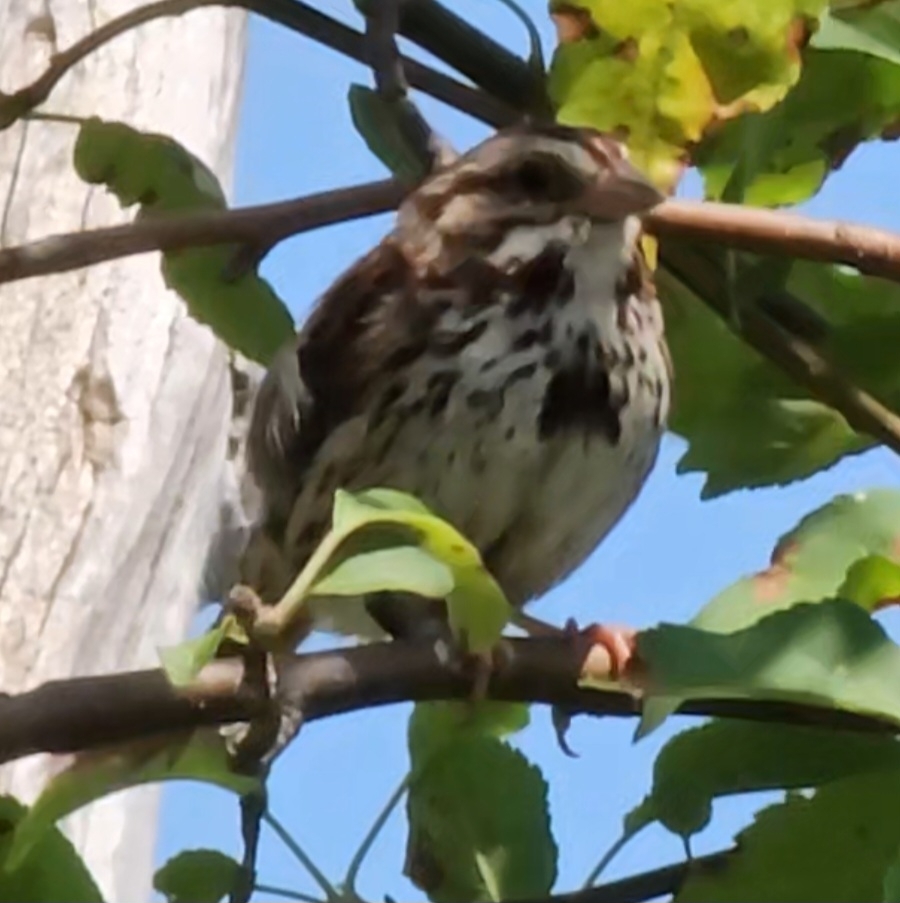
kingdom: Animalia
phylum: Chordata
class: Aves
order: Passeriformes
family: Passerellidae
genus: Melospiza
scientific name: Melospiza melodia
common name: Song sparrow
